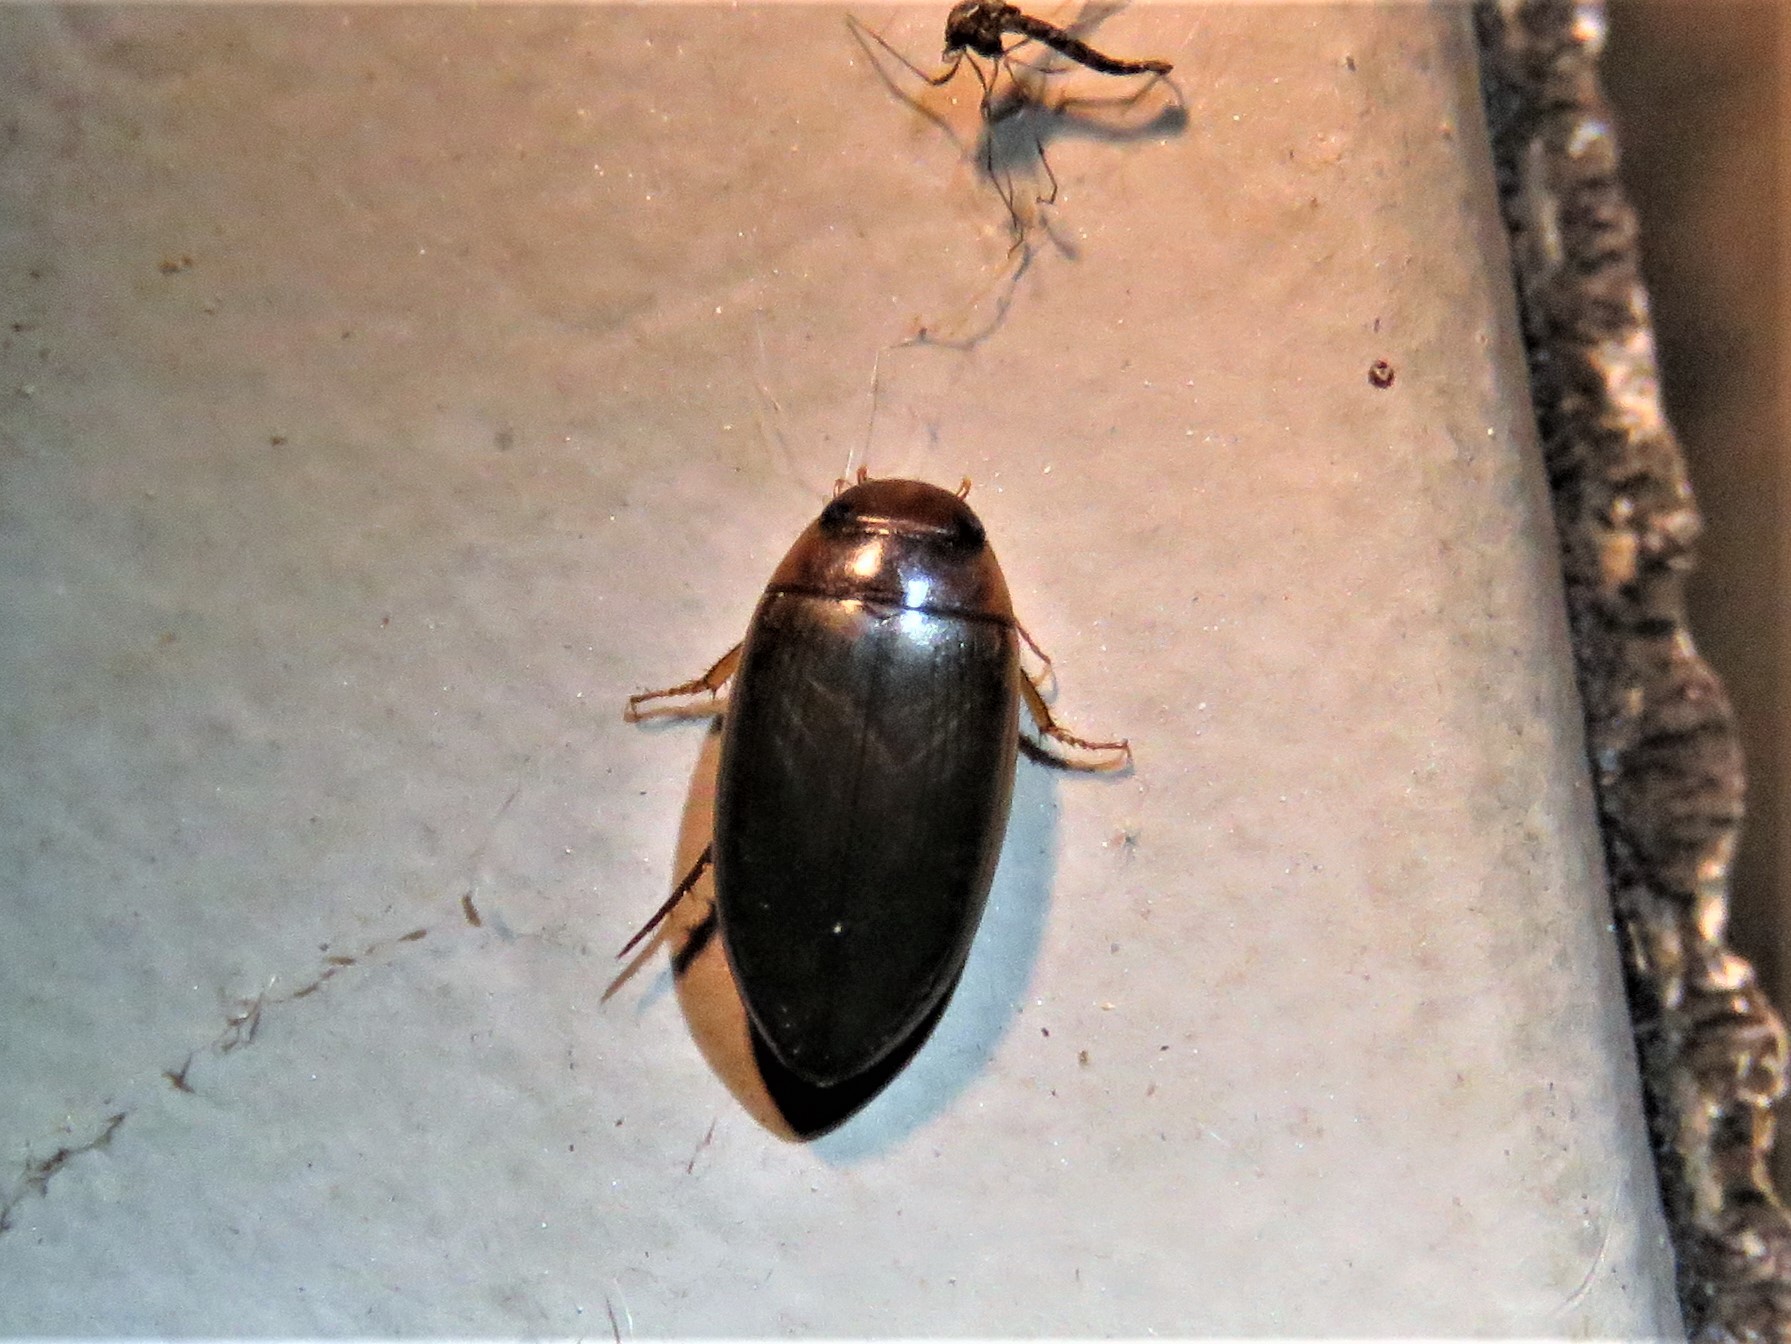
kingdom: Animalia
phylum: Arthropoda
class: Insecta
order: Coleoptera
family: Dytiscidae
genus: Copelatus
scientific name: Copelatus chevrolati
